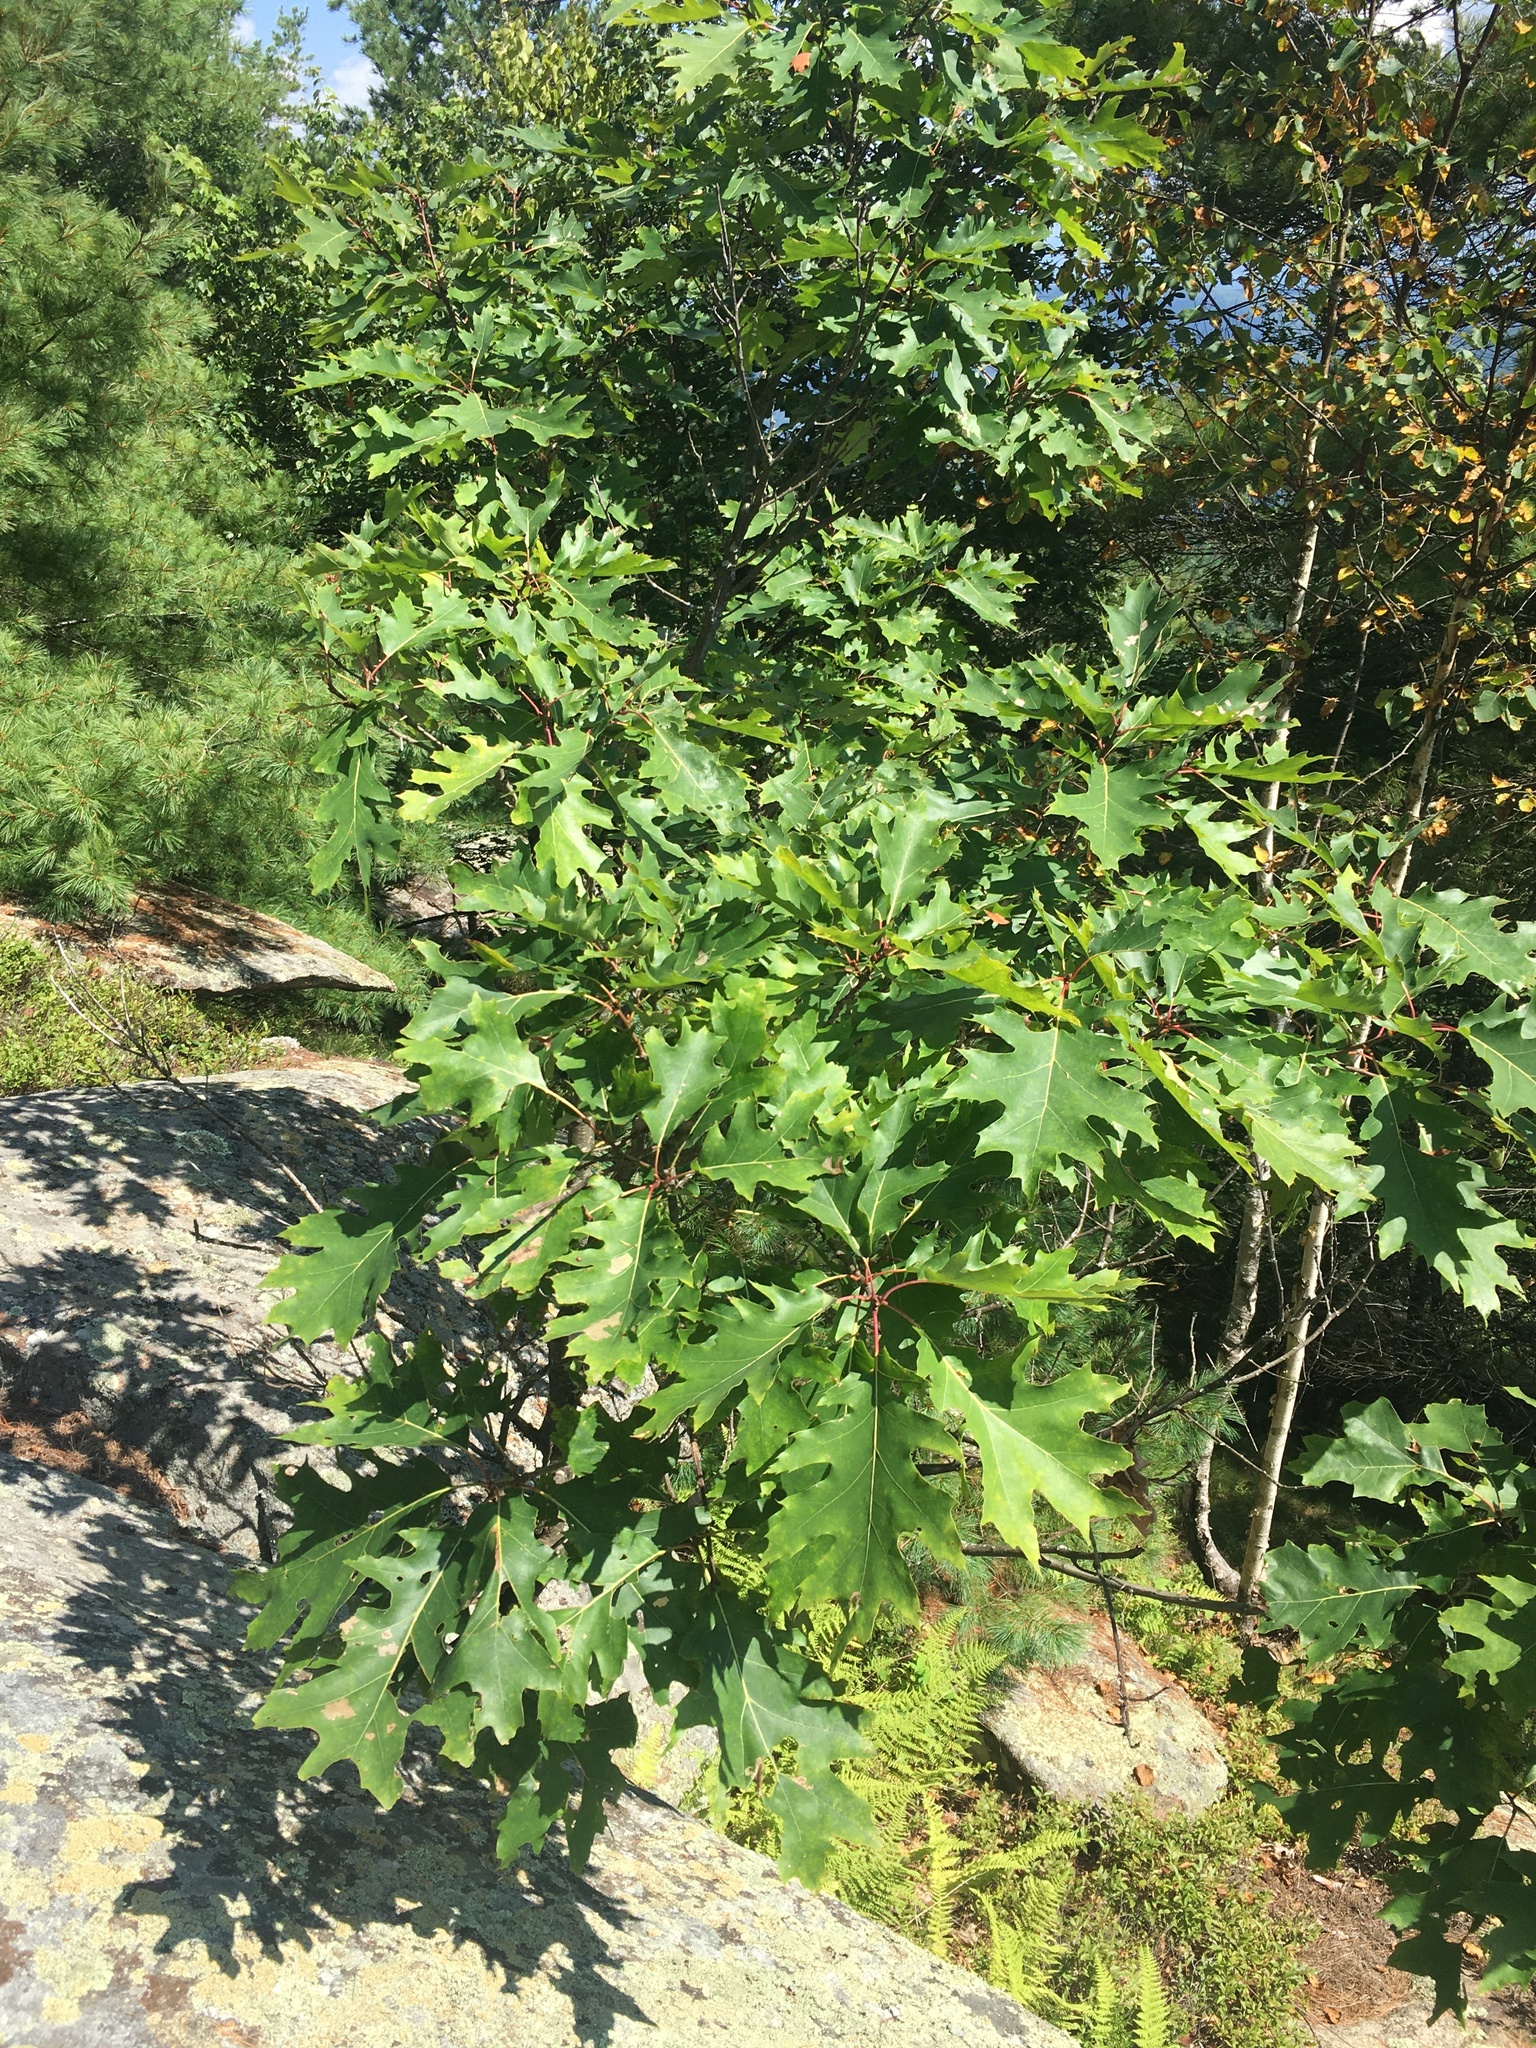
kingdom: Plantae
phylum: Tracheophyta
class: Magnoliopsida
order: Fagales
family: Fagaceae
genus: Quercus
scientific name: Quercus rubra
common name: Red oak
